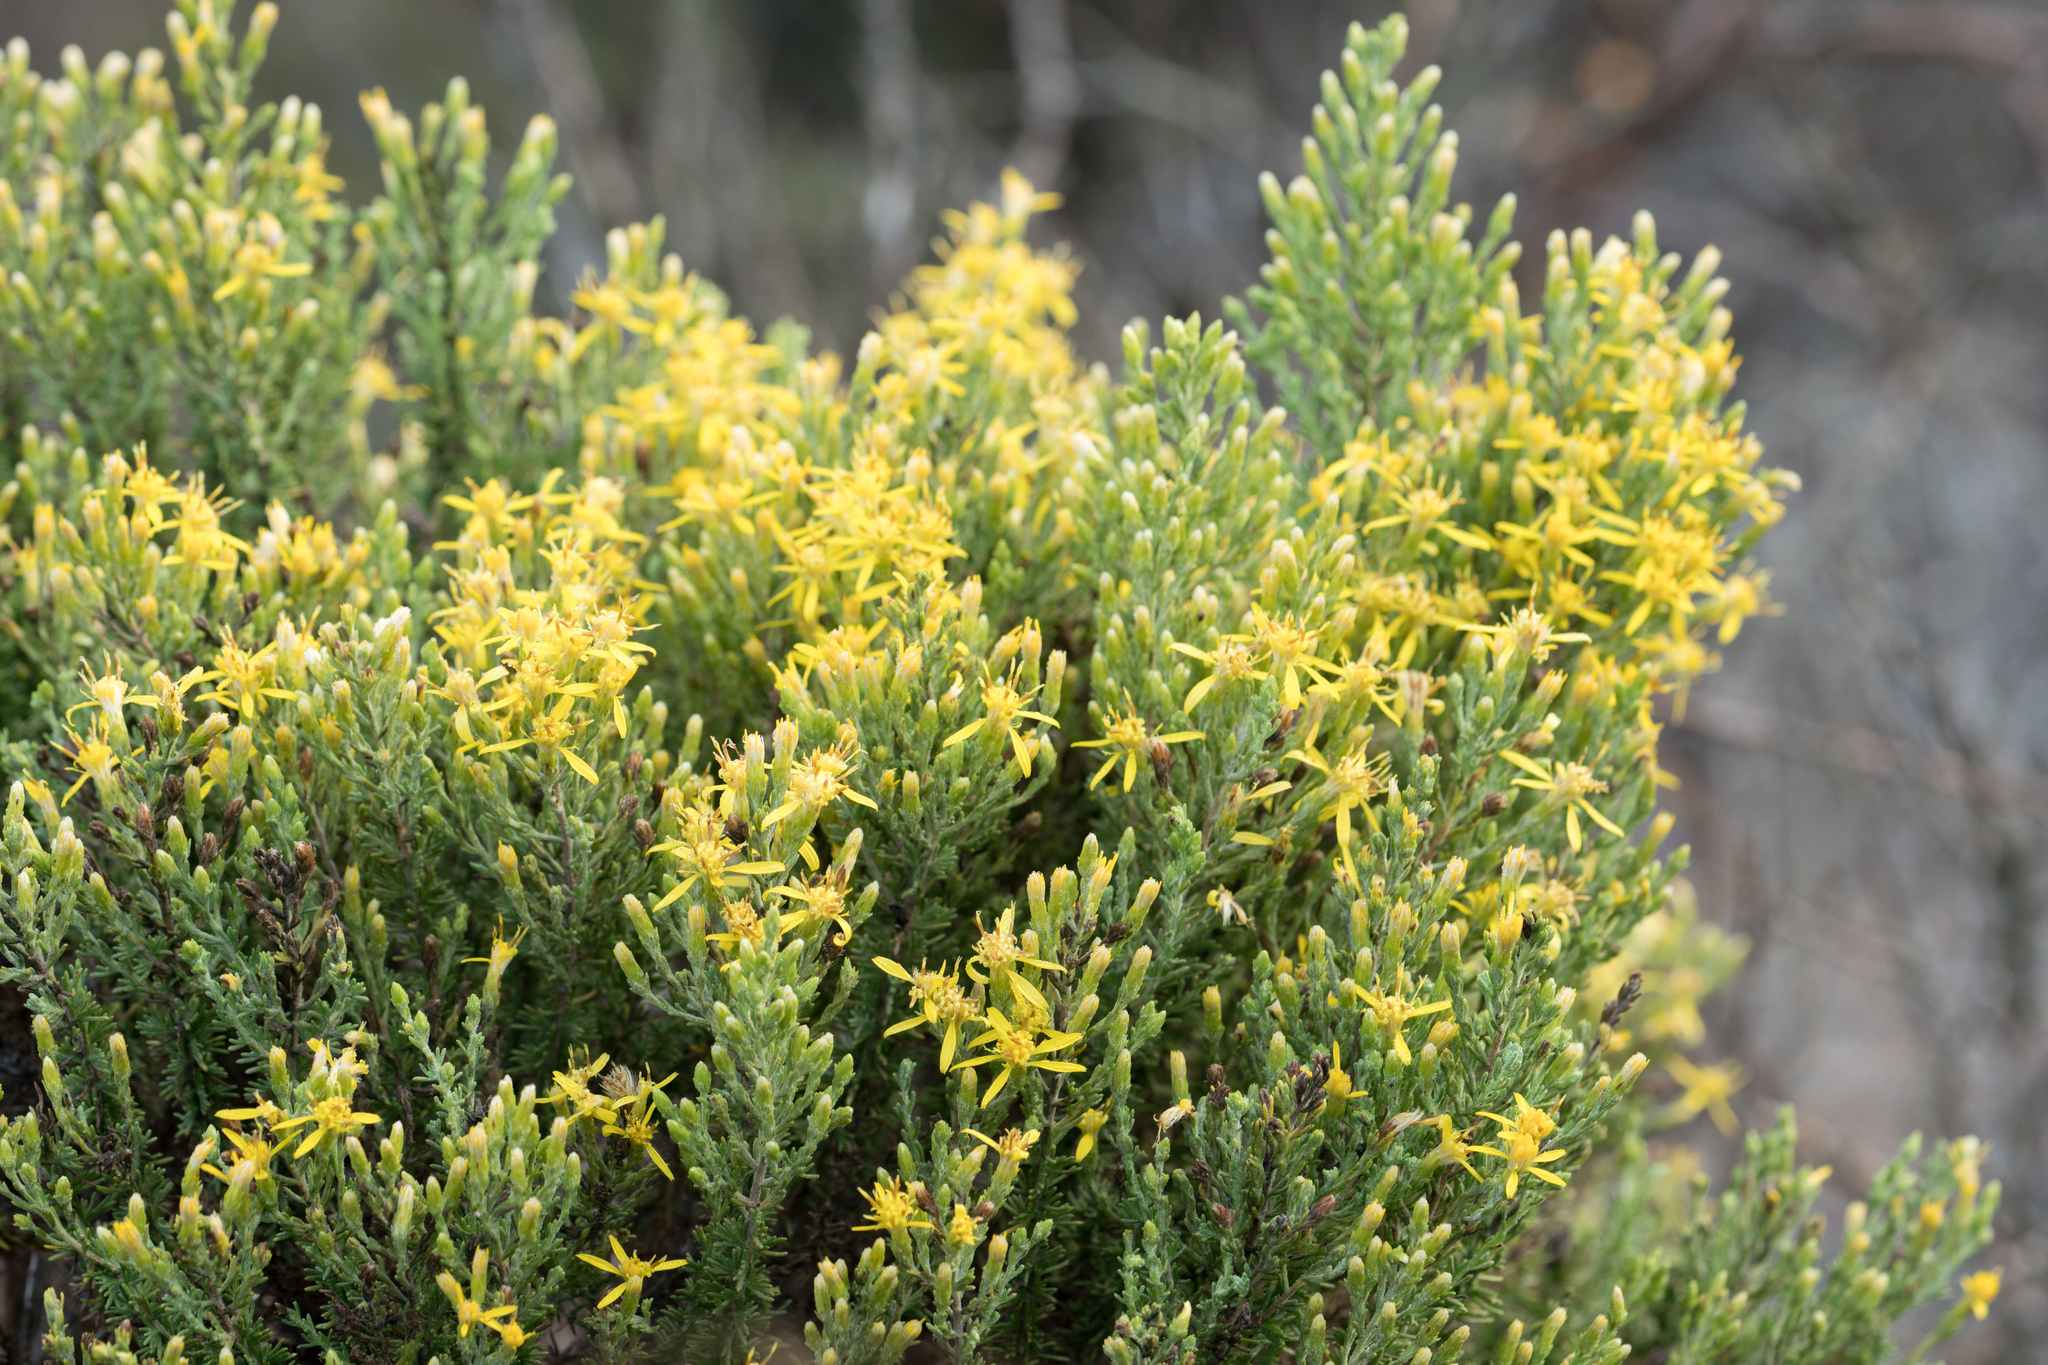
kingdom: Plantae
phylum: Tracheophyta
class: Magnoliopsida
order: Asterales
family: Asteraceae
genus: Ericameria
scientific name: Ericameria ericoides
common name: California goldenbush
